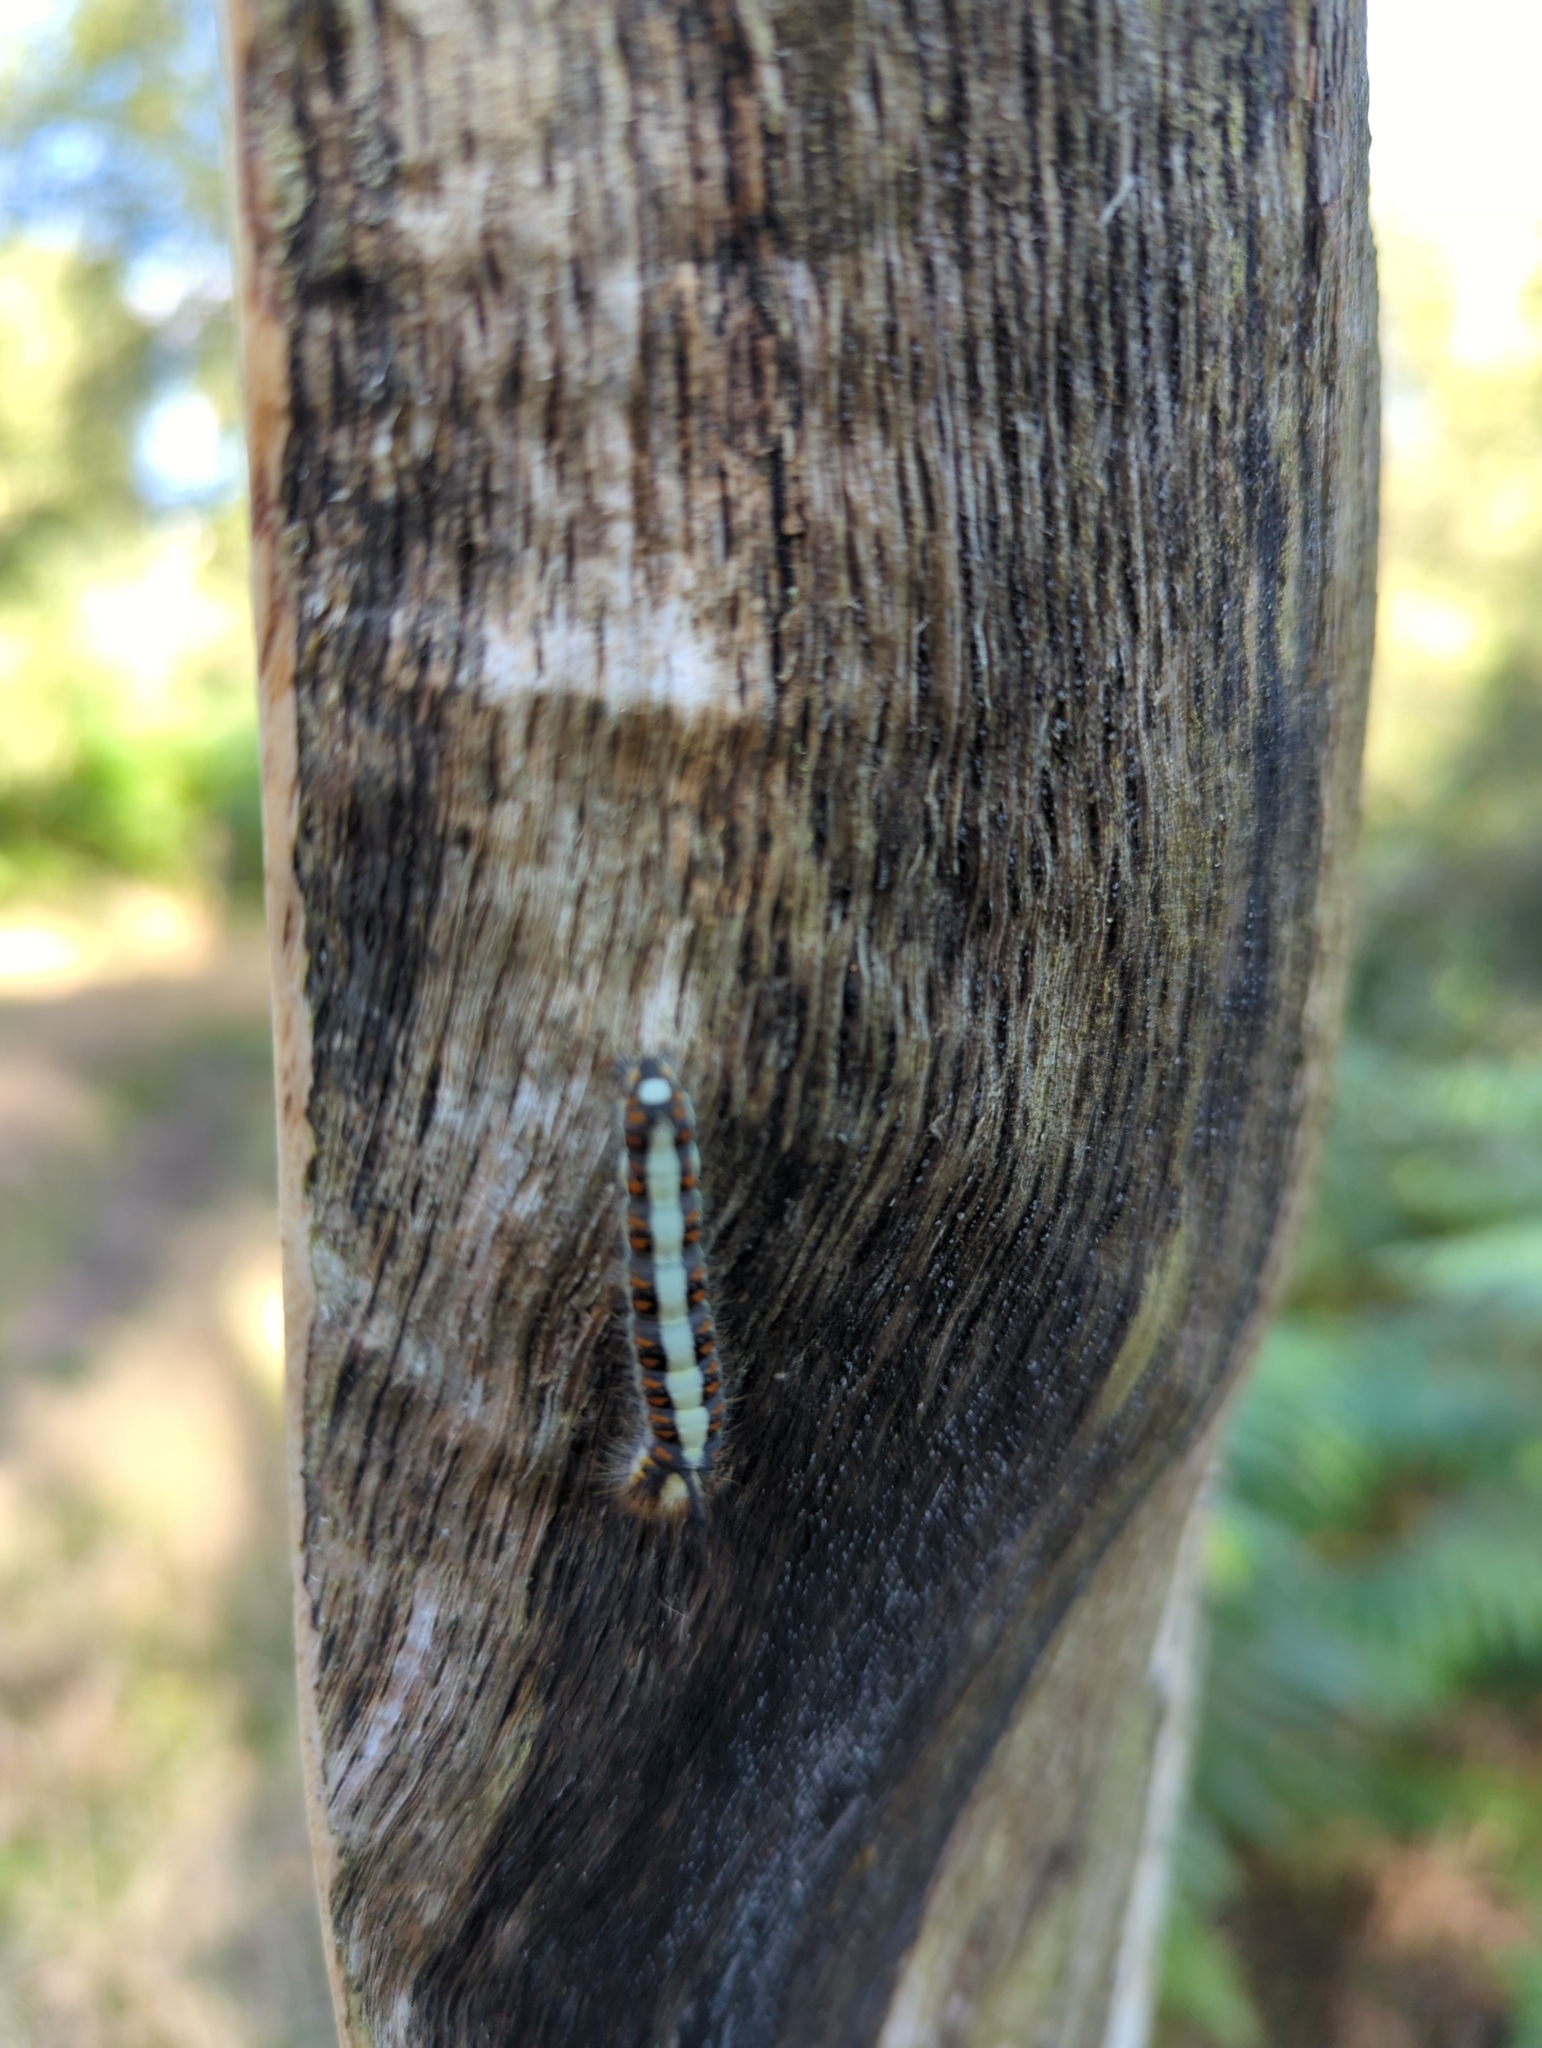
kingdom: Animalia
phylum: Arthropoda
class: Insecta
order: Lepidoptera
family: Noctuidae
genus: Acronicta
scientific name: Acronicta psi
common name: Grey dagger
